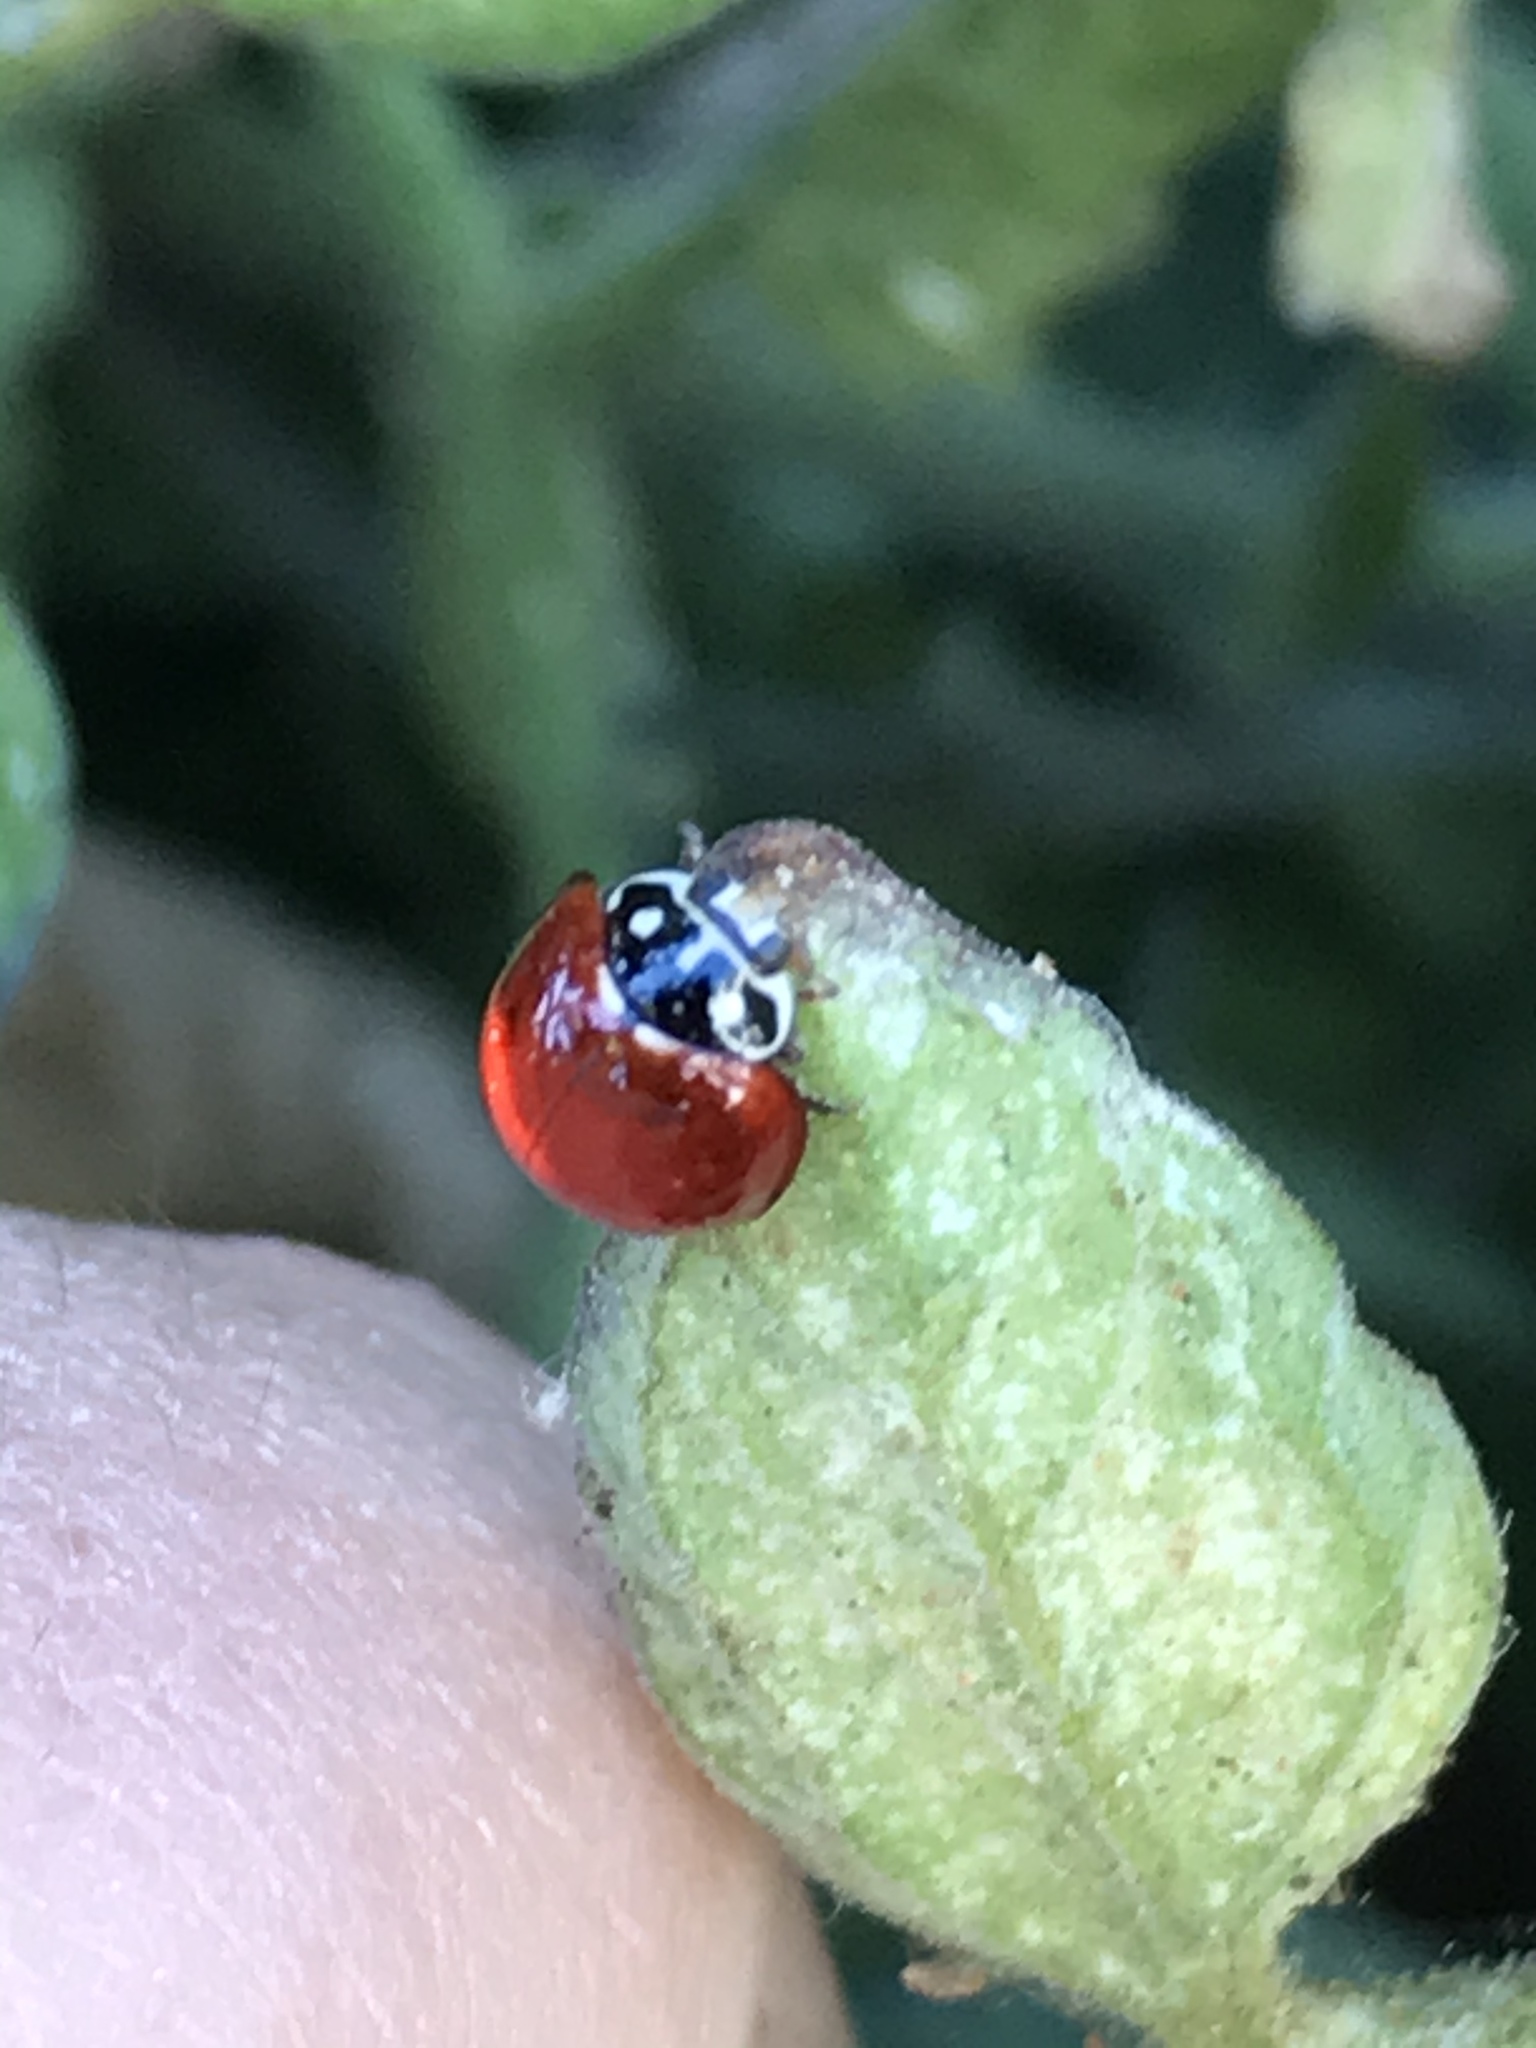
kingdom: Animalia
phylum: Arthropoda
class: Insecta
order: Coleoptera
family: Coccinellidae
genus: Cycloneda
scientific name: Cycloneda sanguinea
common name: Ladybird beetle
